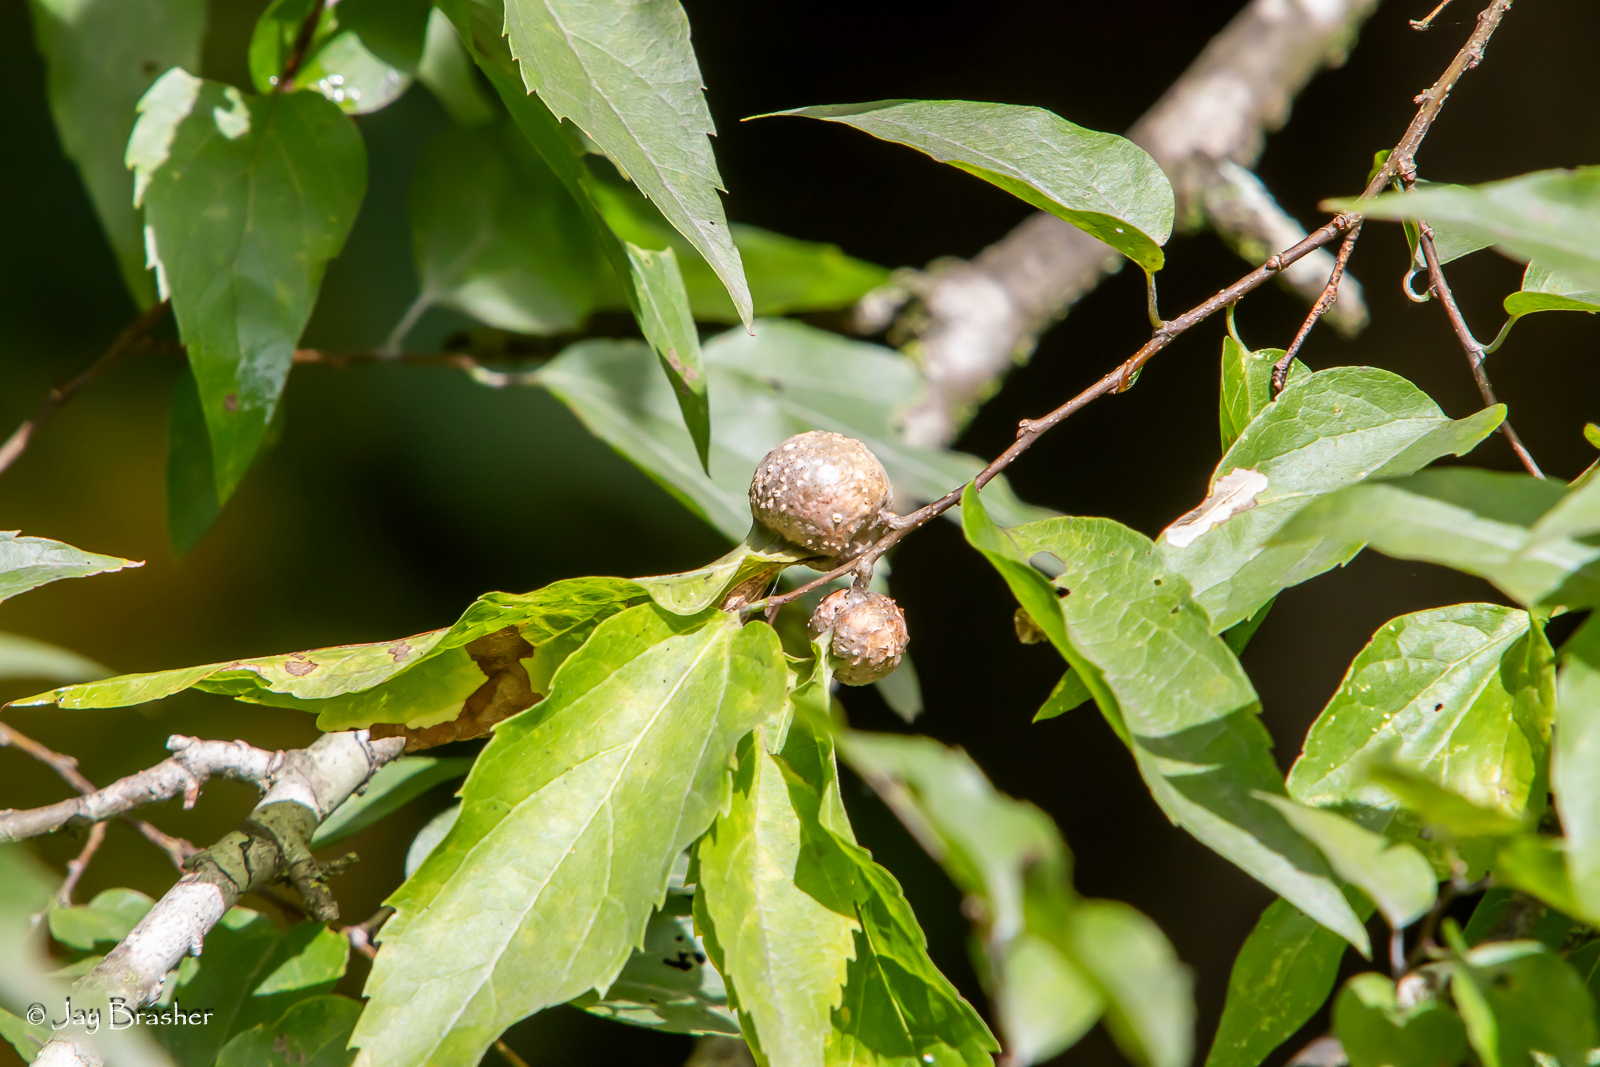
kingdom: Animalia
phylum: Arthropoda
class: Insecta
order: Hemiptera
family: Aphalaridae
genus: Pachypsylla
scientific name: Pachypsylla venusta
